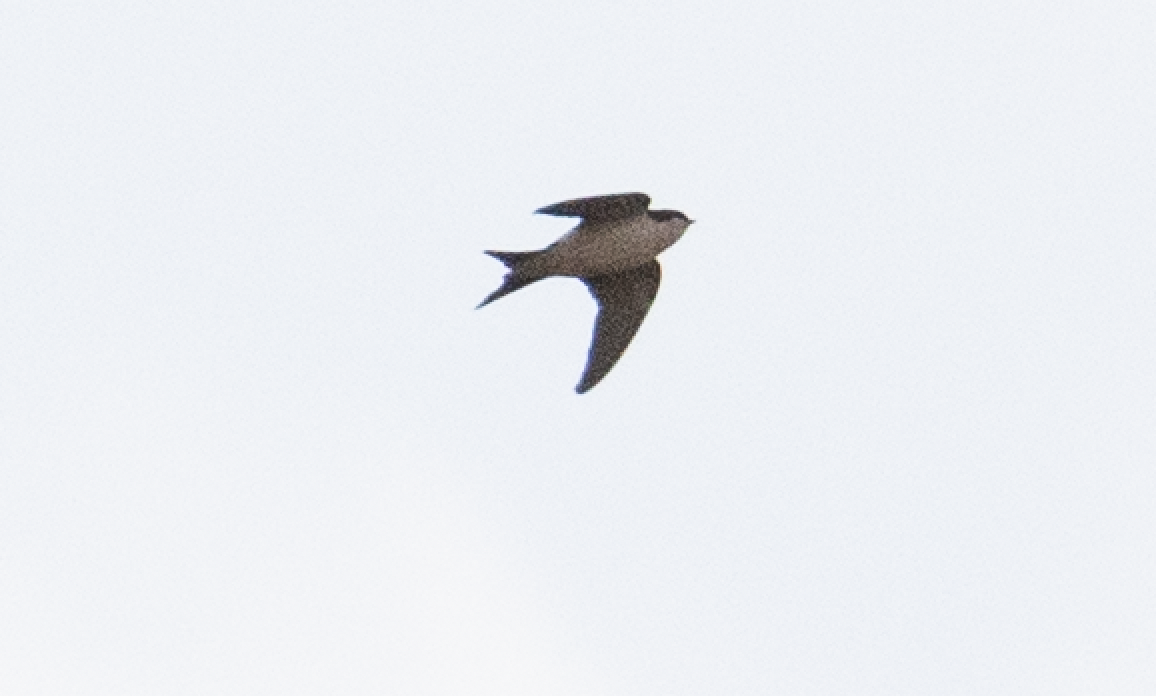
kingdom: Animalia
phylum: Chordata
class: Aves
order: Passeriformes
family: Hirundinidae
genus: Delichon
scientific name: Delichon urbicum
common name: Common house martin
